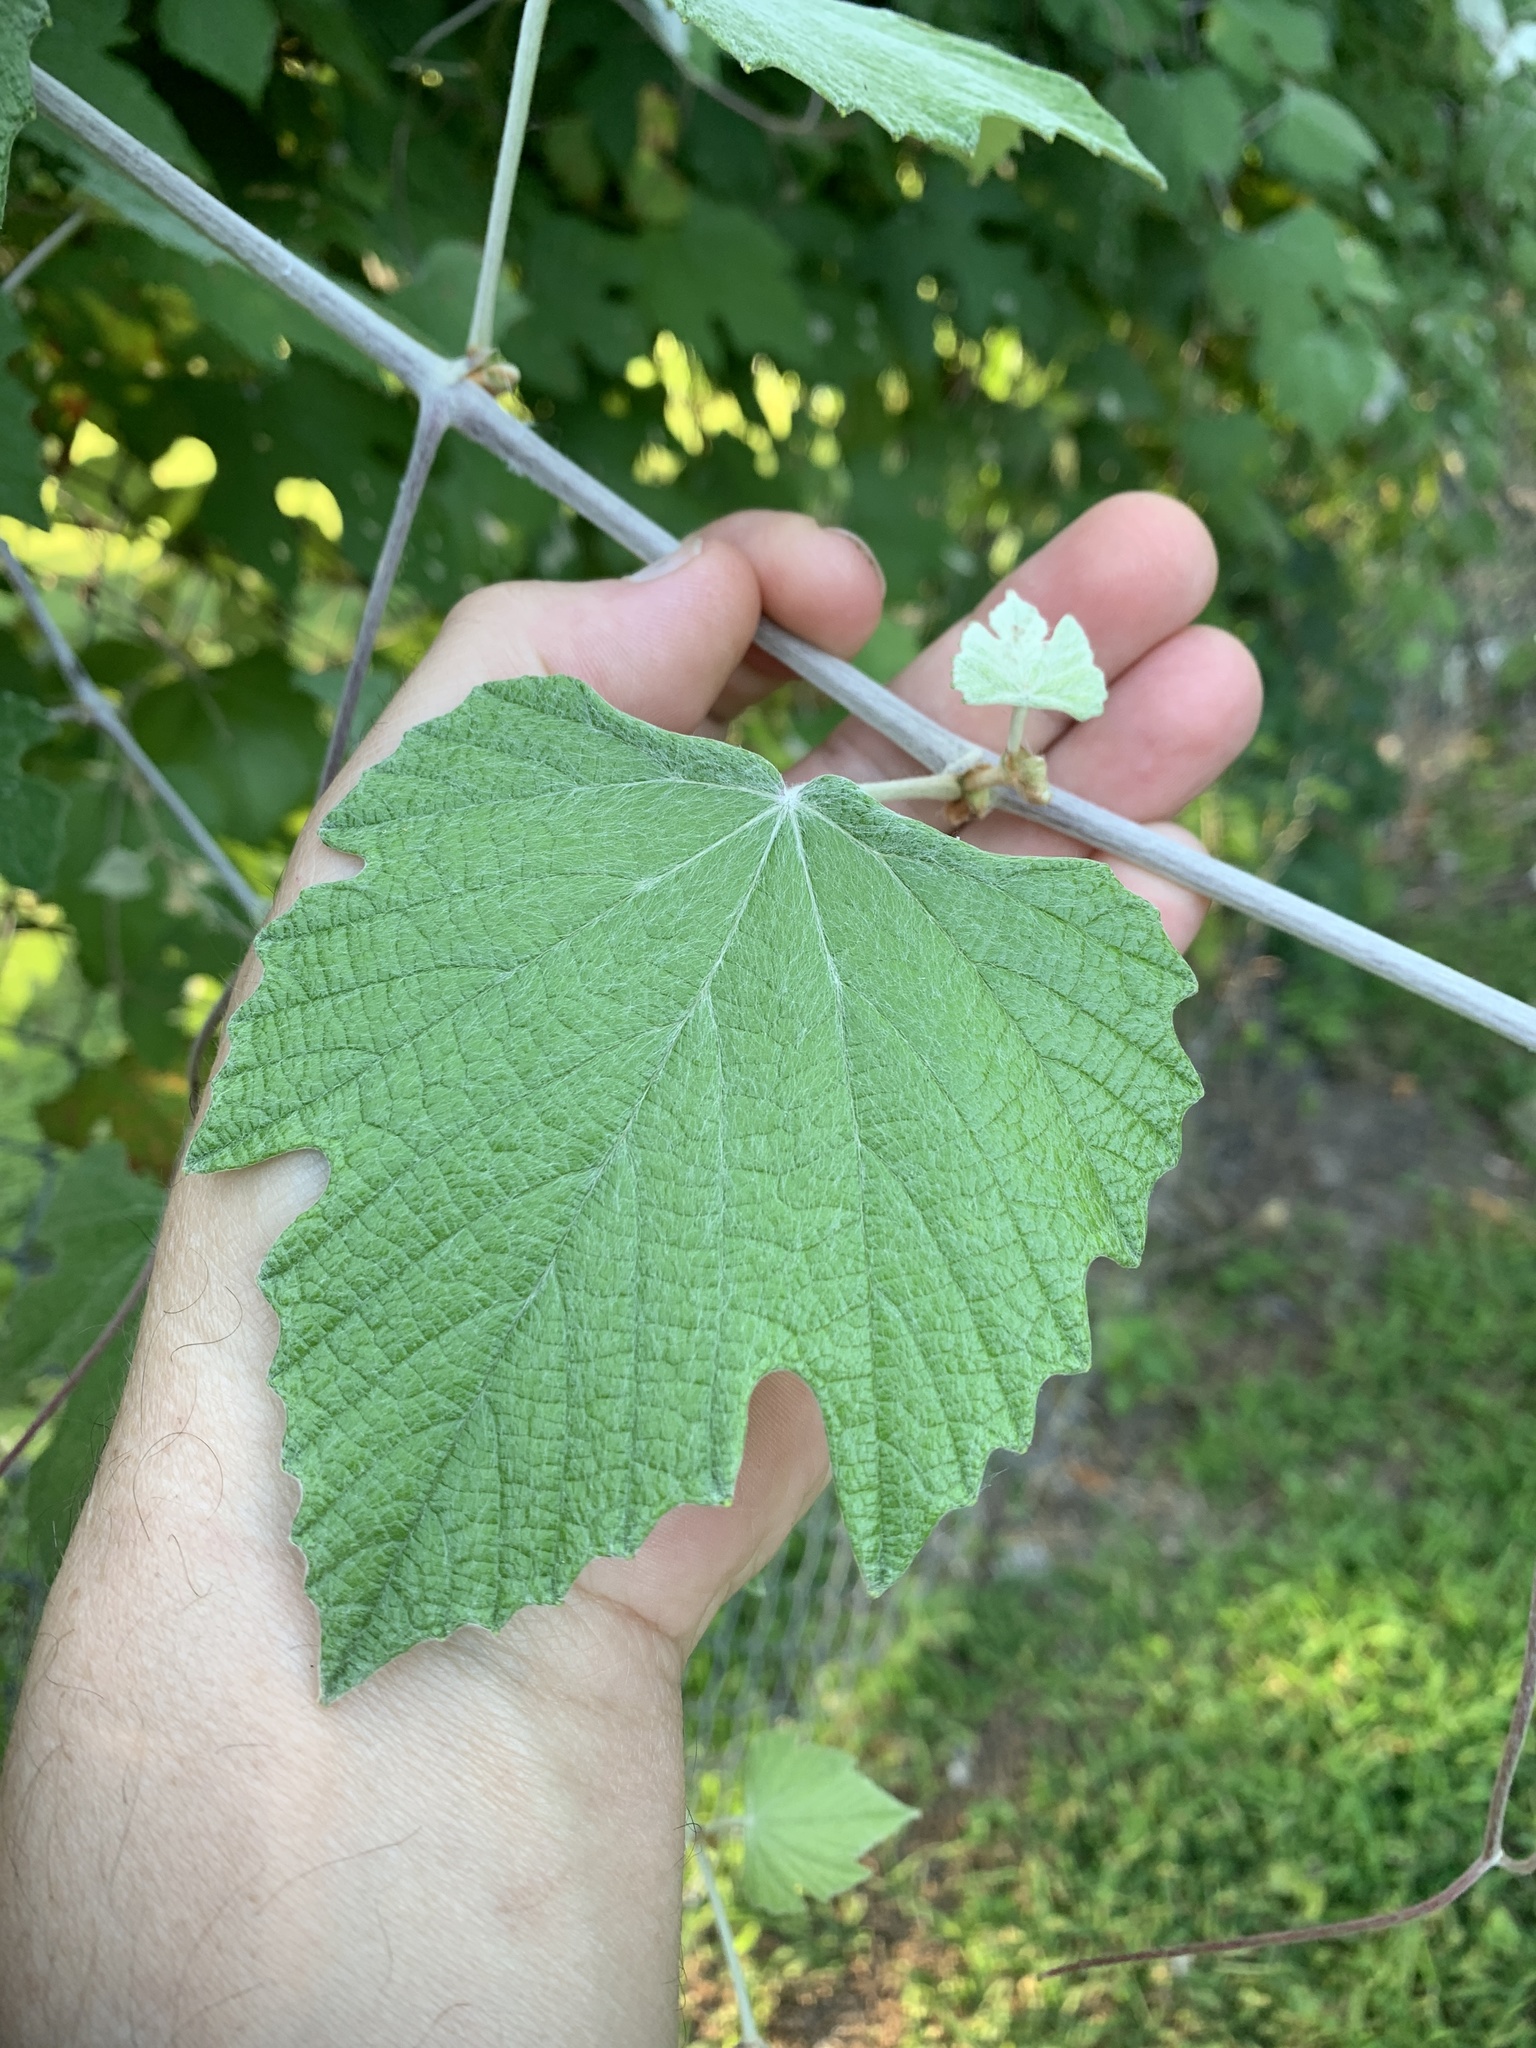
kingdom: Plantae
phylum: Tracheophyta
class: Magnoliopsida
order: Vitales
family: Vitaceae
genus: Vitis
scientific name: Vitis mustangensis
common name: Mustang grape
